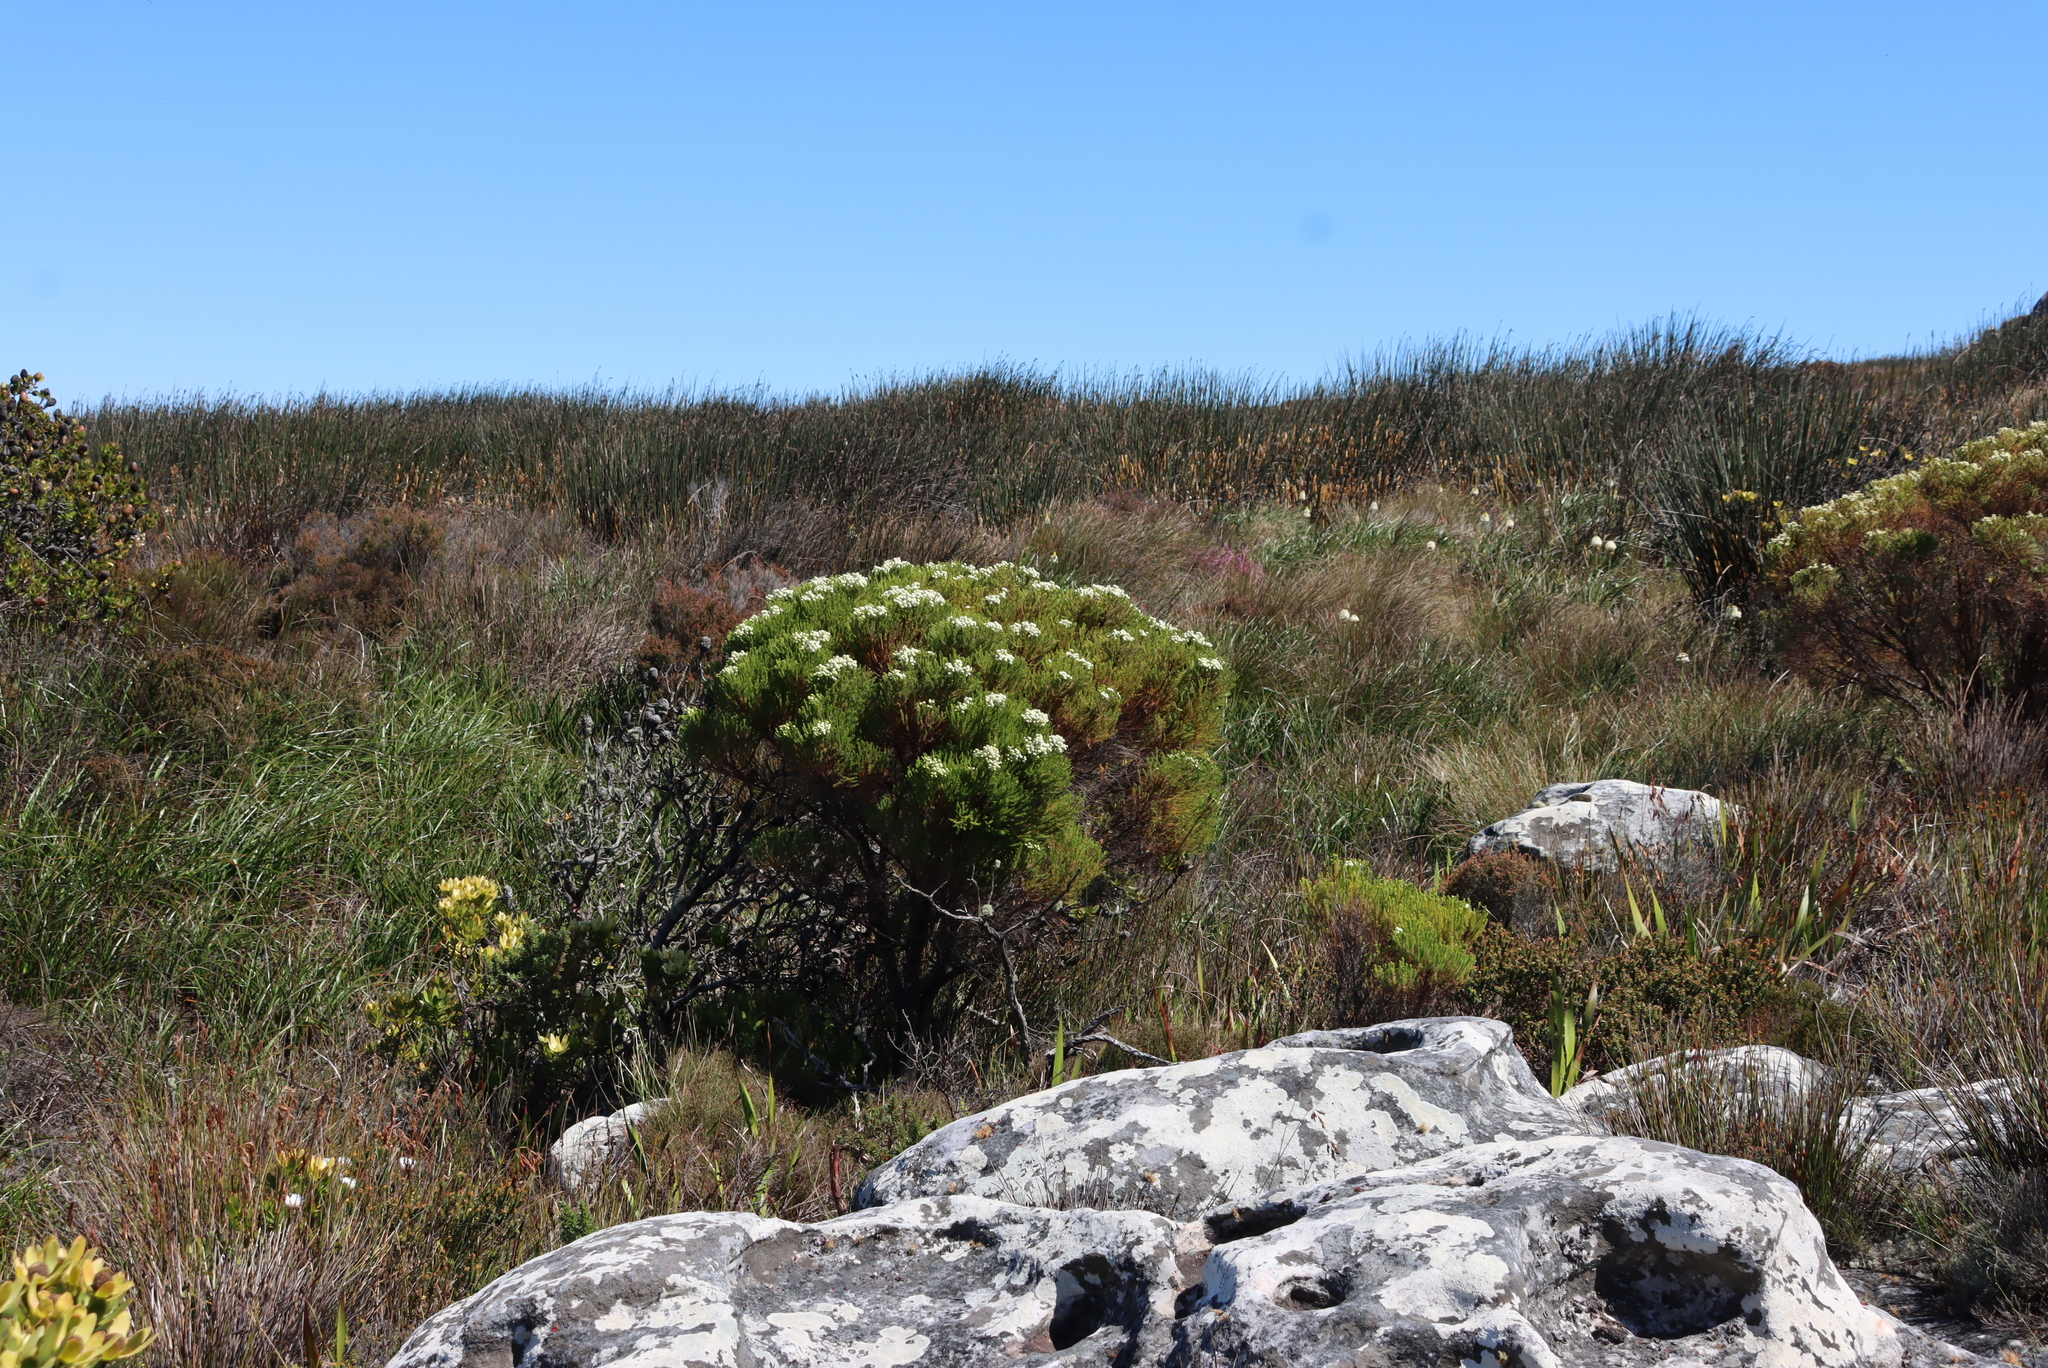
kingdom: Plantae
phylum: Tracheophyta
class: Magnoliopsida
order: Bruniales
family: Bruniaceae
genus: Berzelia
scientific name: Berzelia lanuginosa
